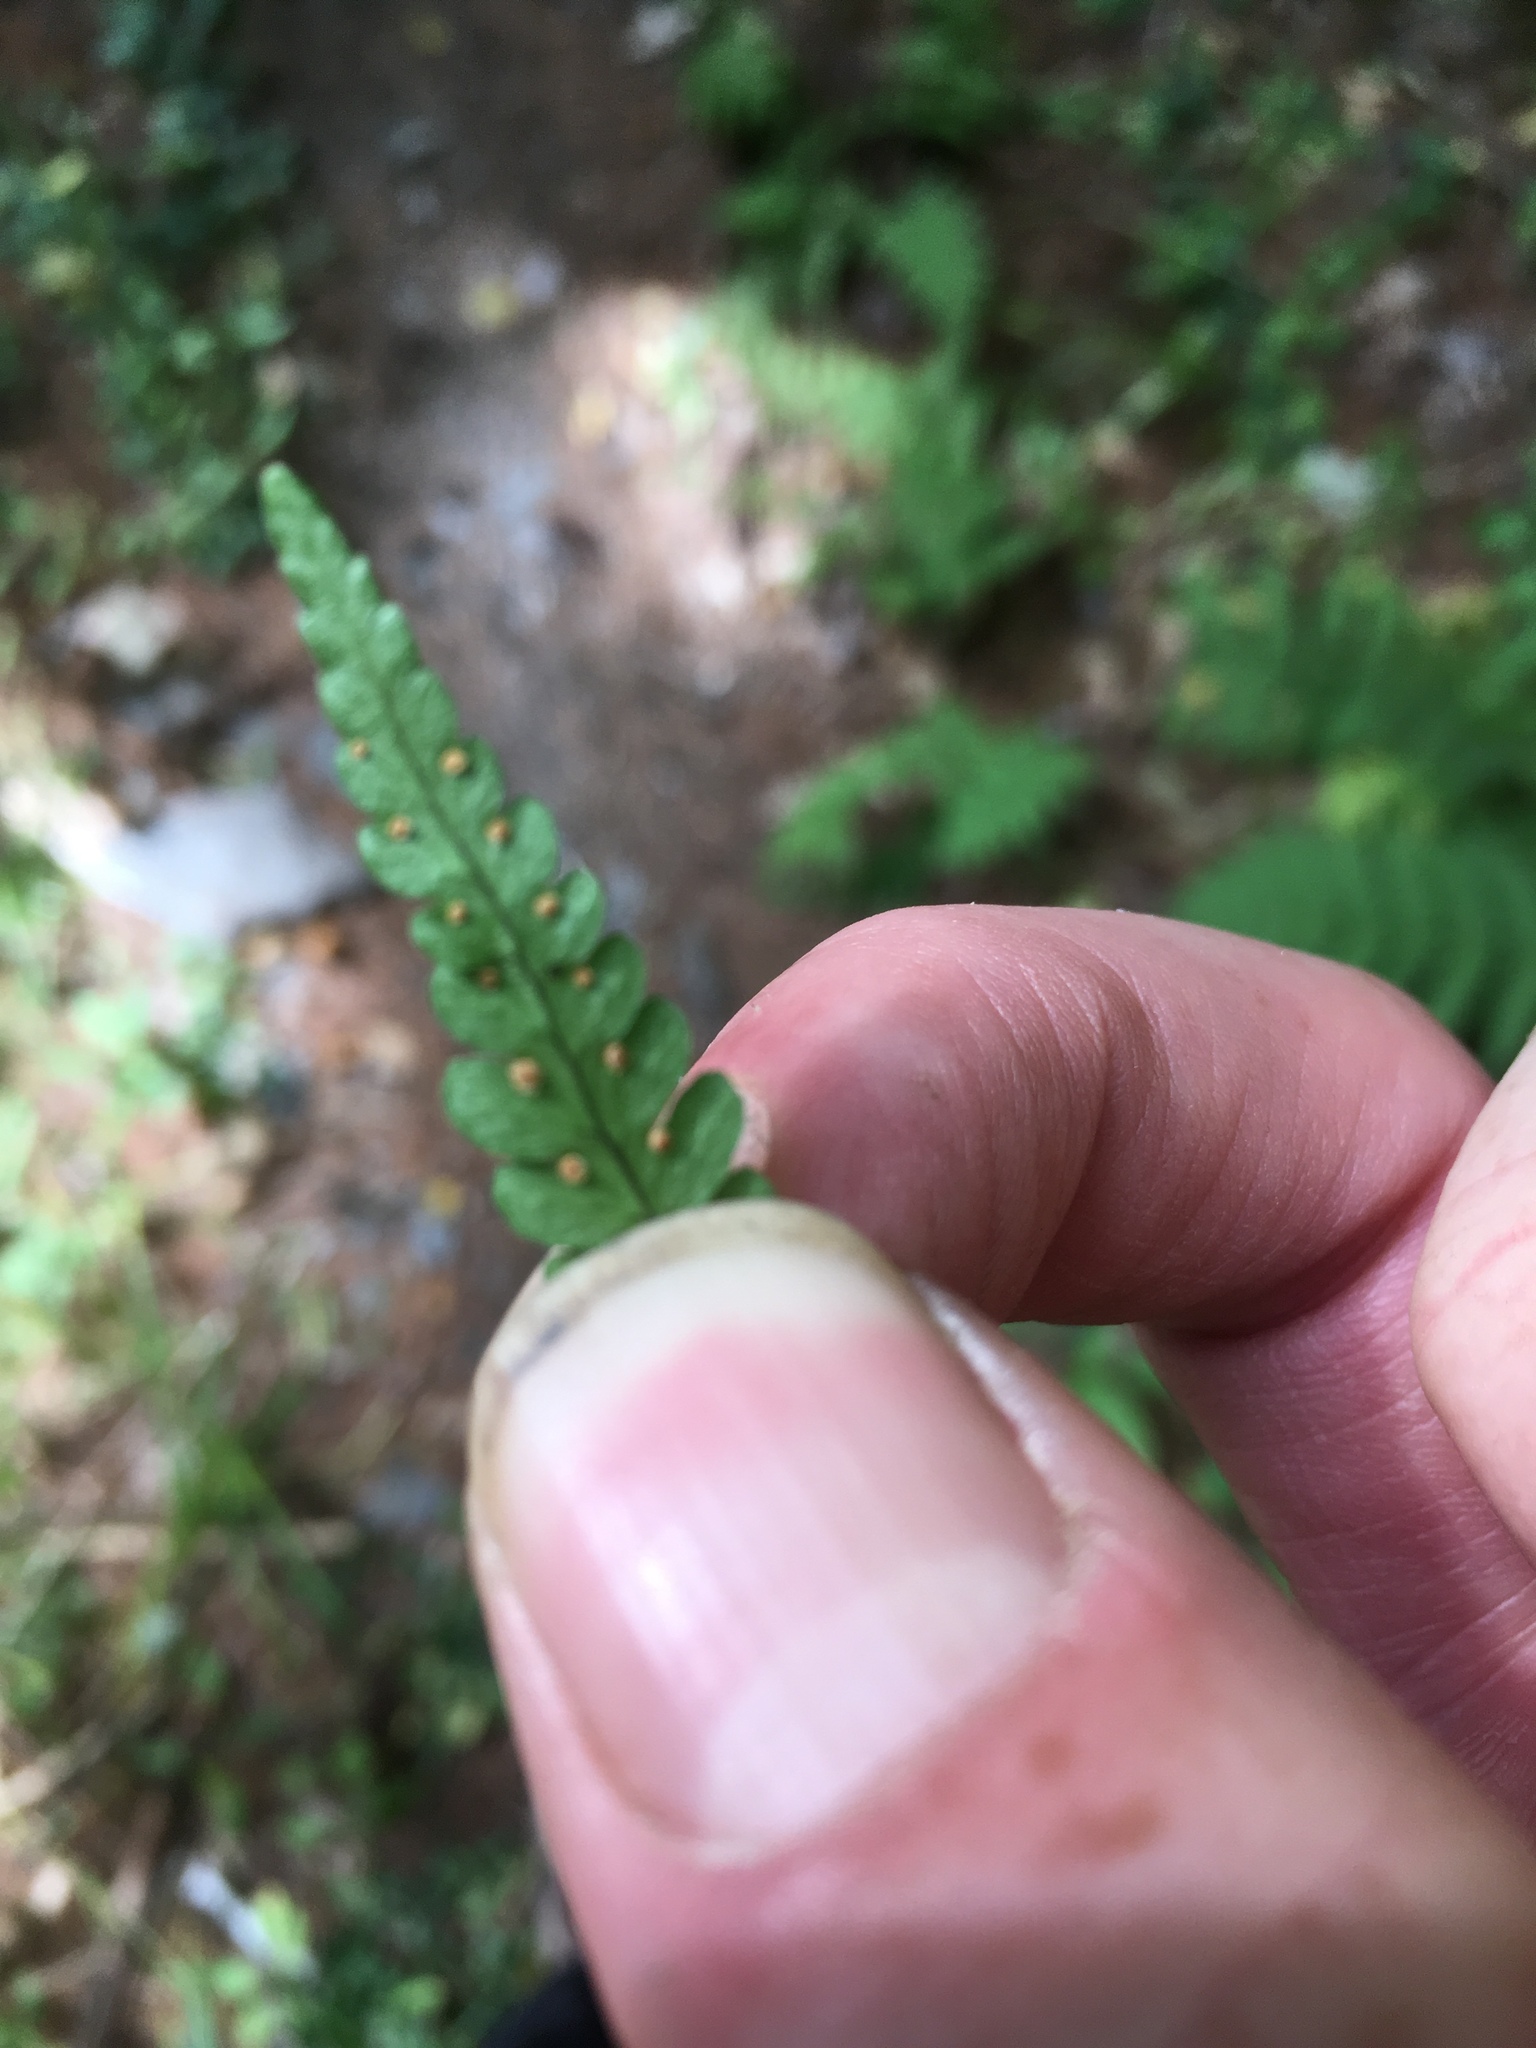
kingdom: Plantae
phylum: Tracheophyta
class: Polypodiopsida
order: Polypodiales
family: Dryopteridaceae
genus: Dryopteris
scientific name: Dryopteris marginalis
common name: Marginal wood fern
